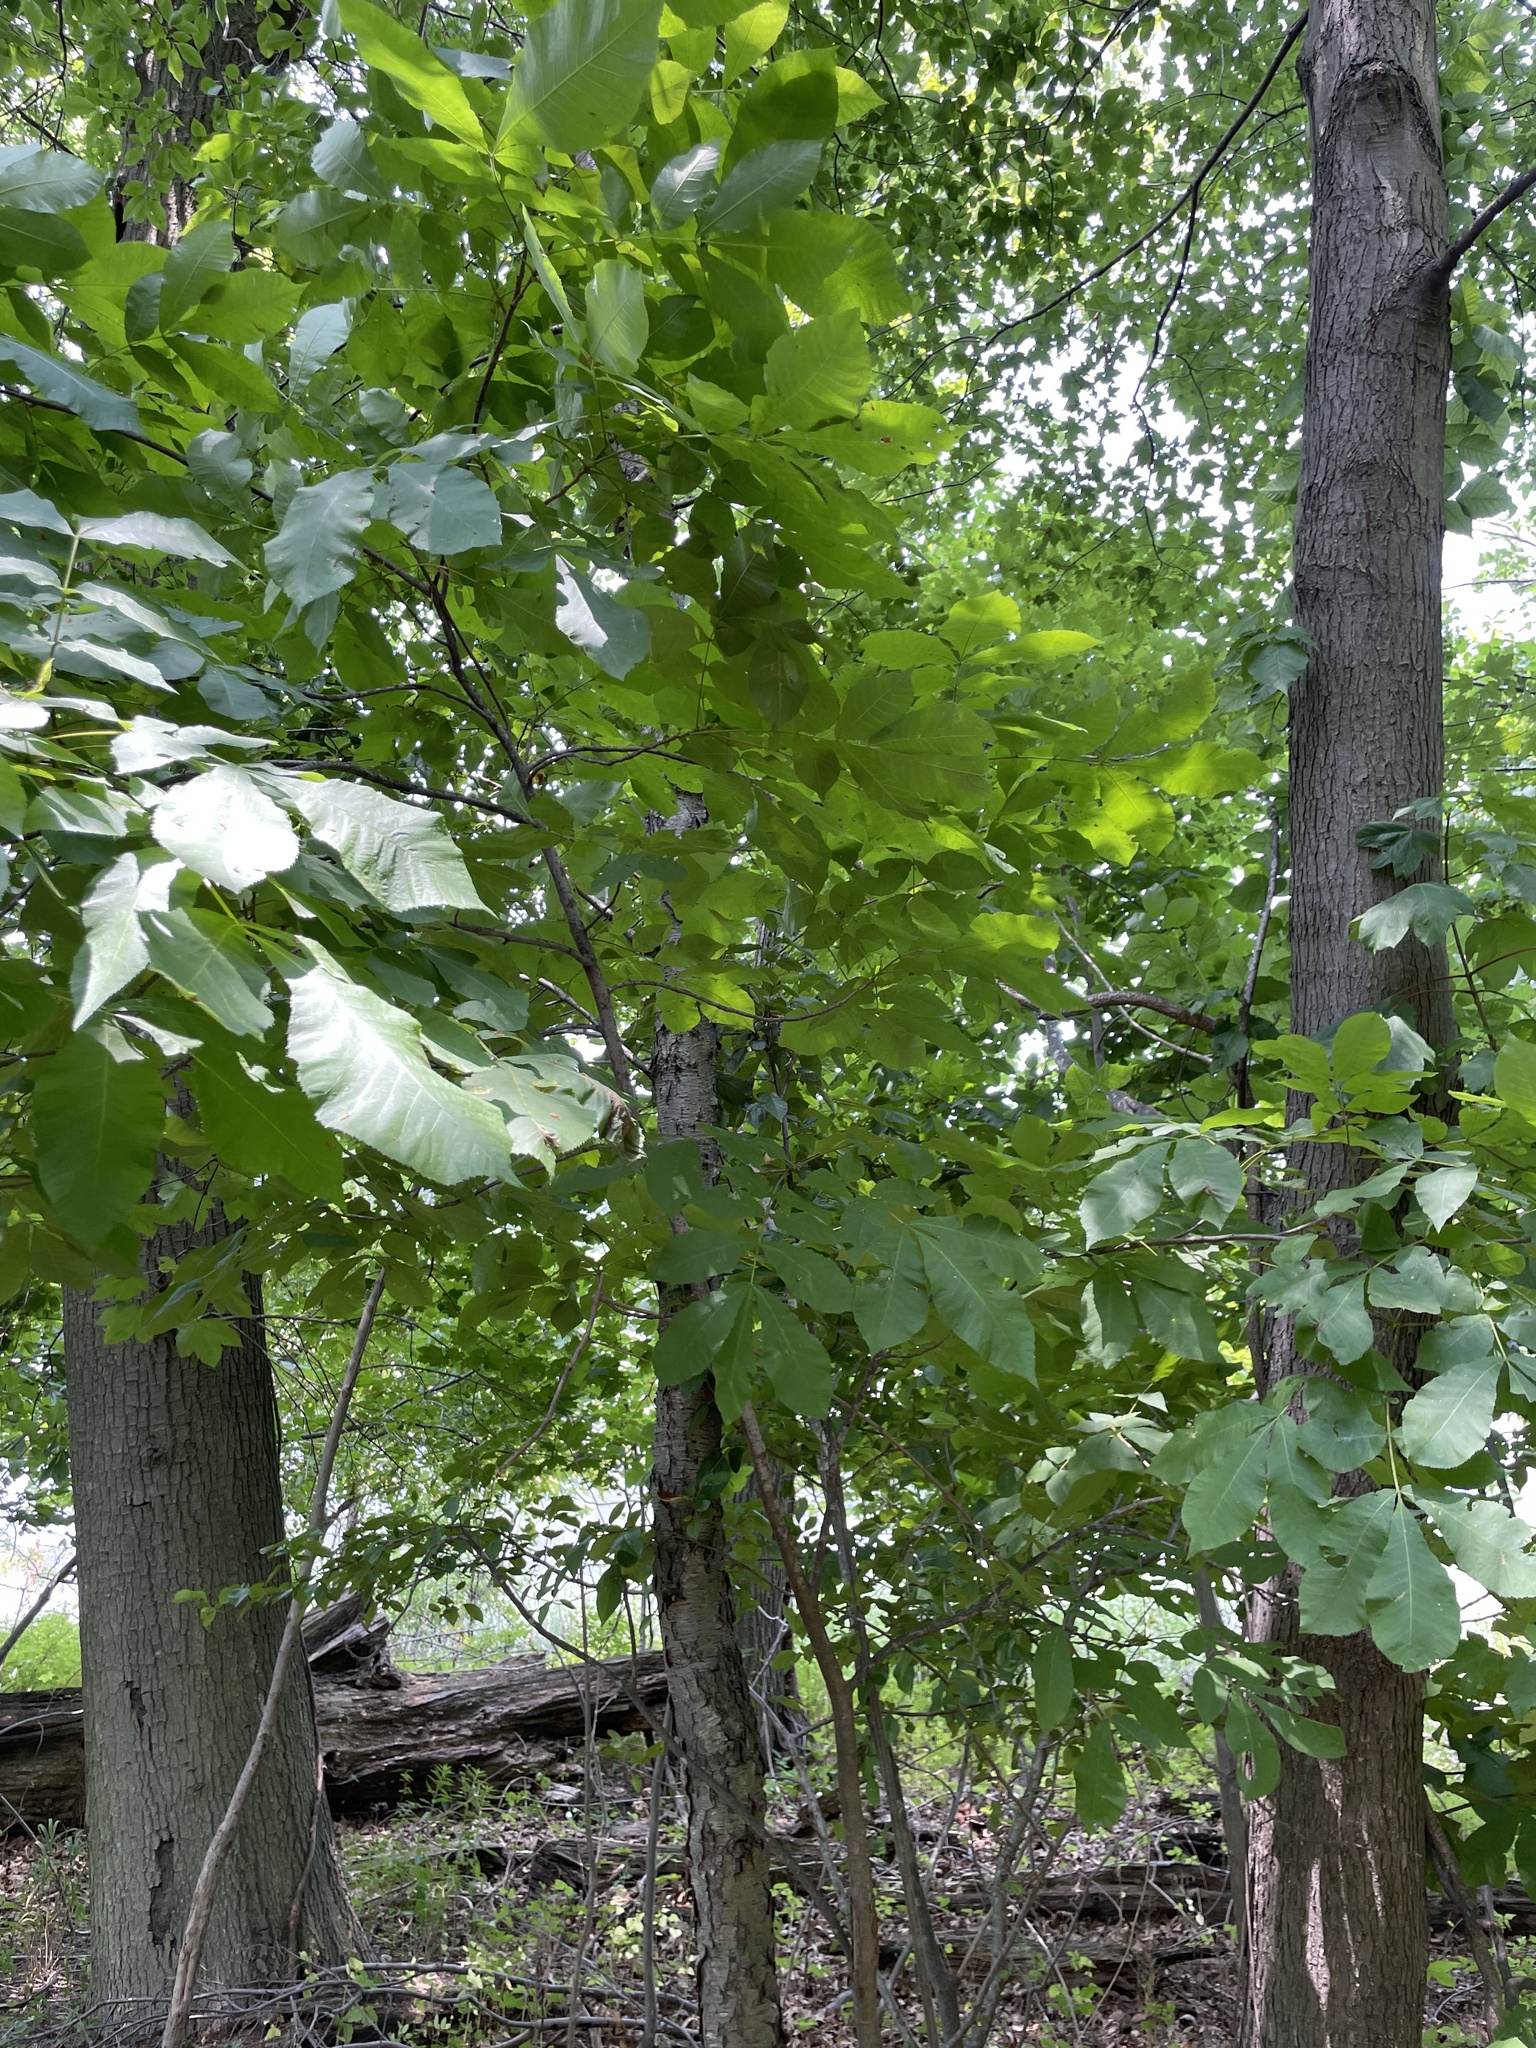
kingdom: Plantae
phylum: Tracheophyta
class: Magnoliopsida
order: Fagales
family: Juglandaceae
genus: Carya
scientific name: Carya cordiformis
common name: Bitternut hickory
